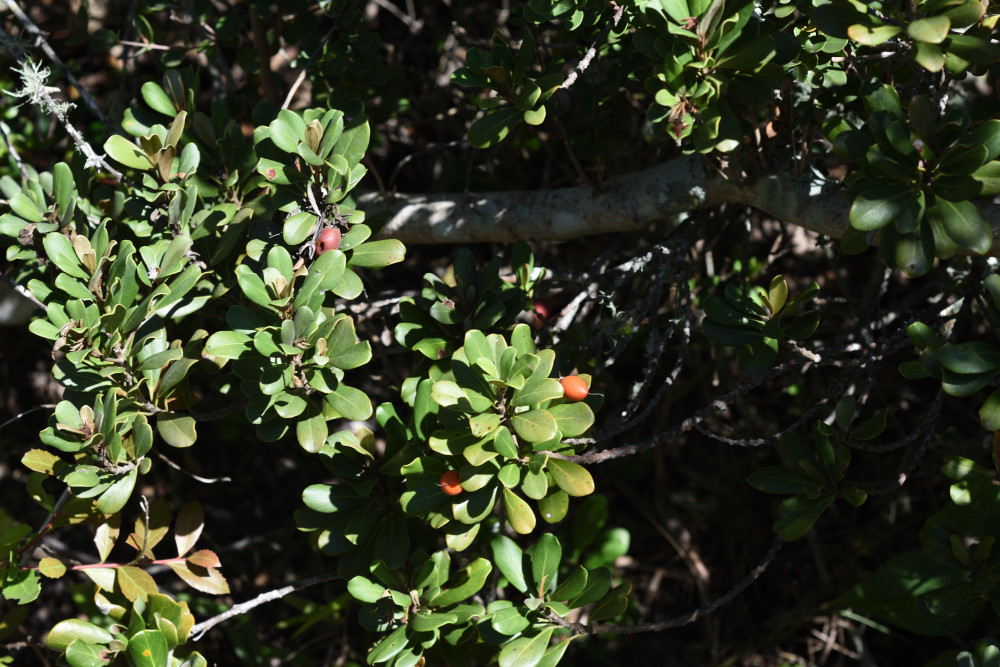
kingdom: Plantae
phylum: Tracheophyta
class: Magnoliopsida
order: Ericales
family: Sapotaceae
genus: Mimusops
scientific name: Mimusops caffra
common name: Coastal red milkwood
